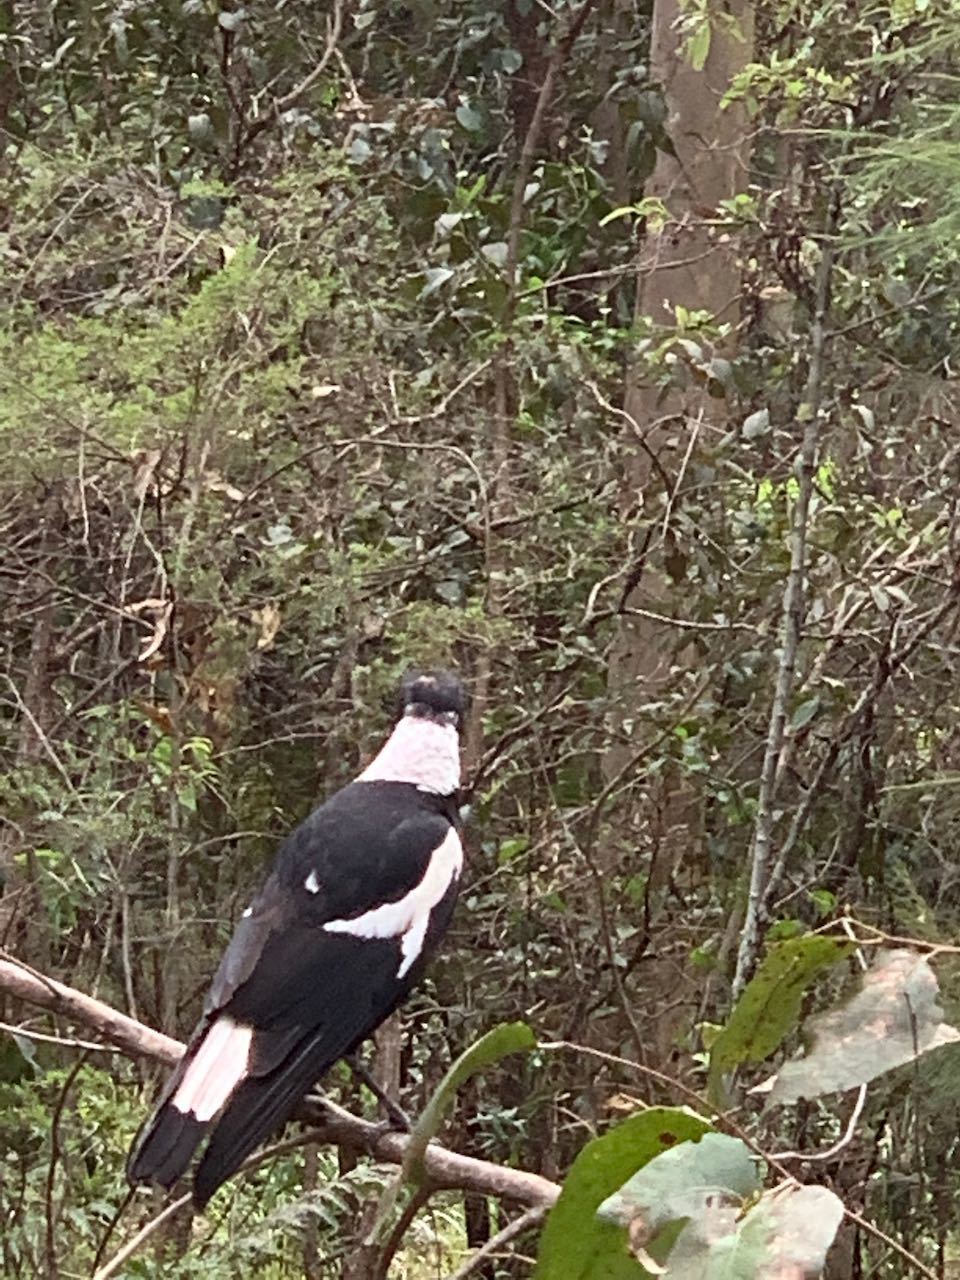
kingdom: Animalia
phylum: Chordata
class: Aves
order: Passeriformes
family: Cracticidae
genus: Gymnorhina
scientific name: Gymnorhina tibicen
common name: Australian magpie
